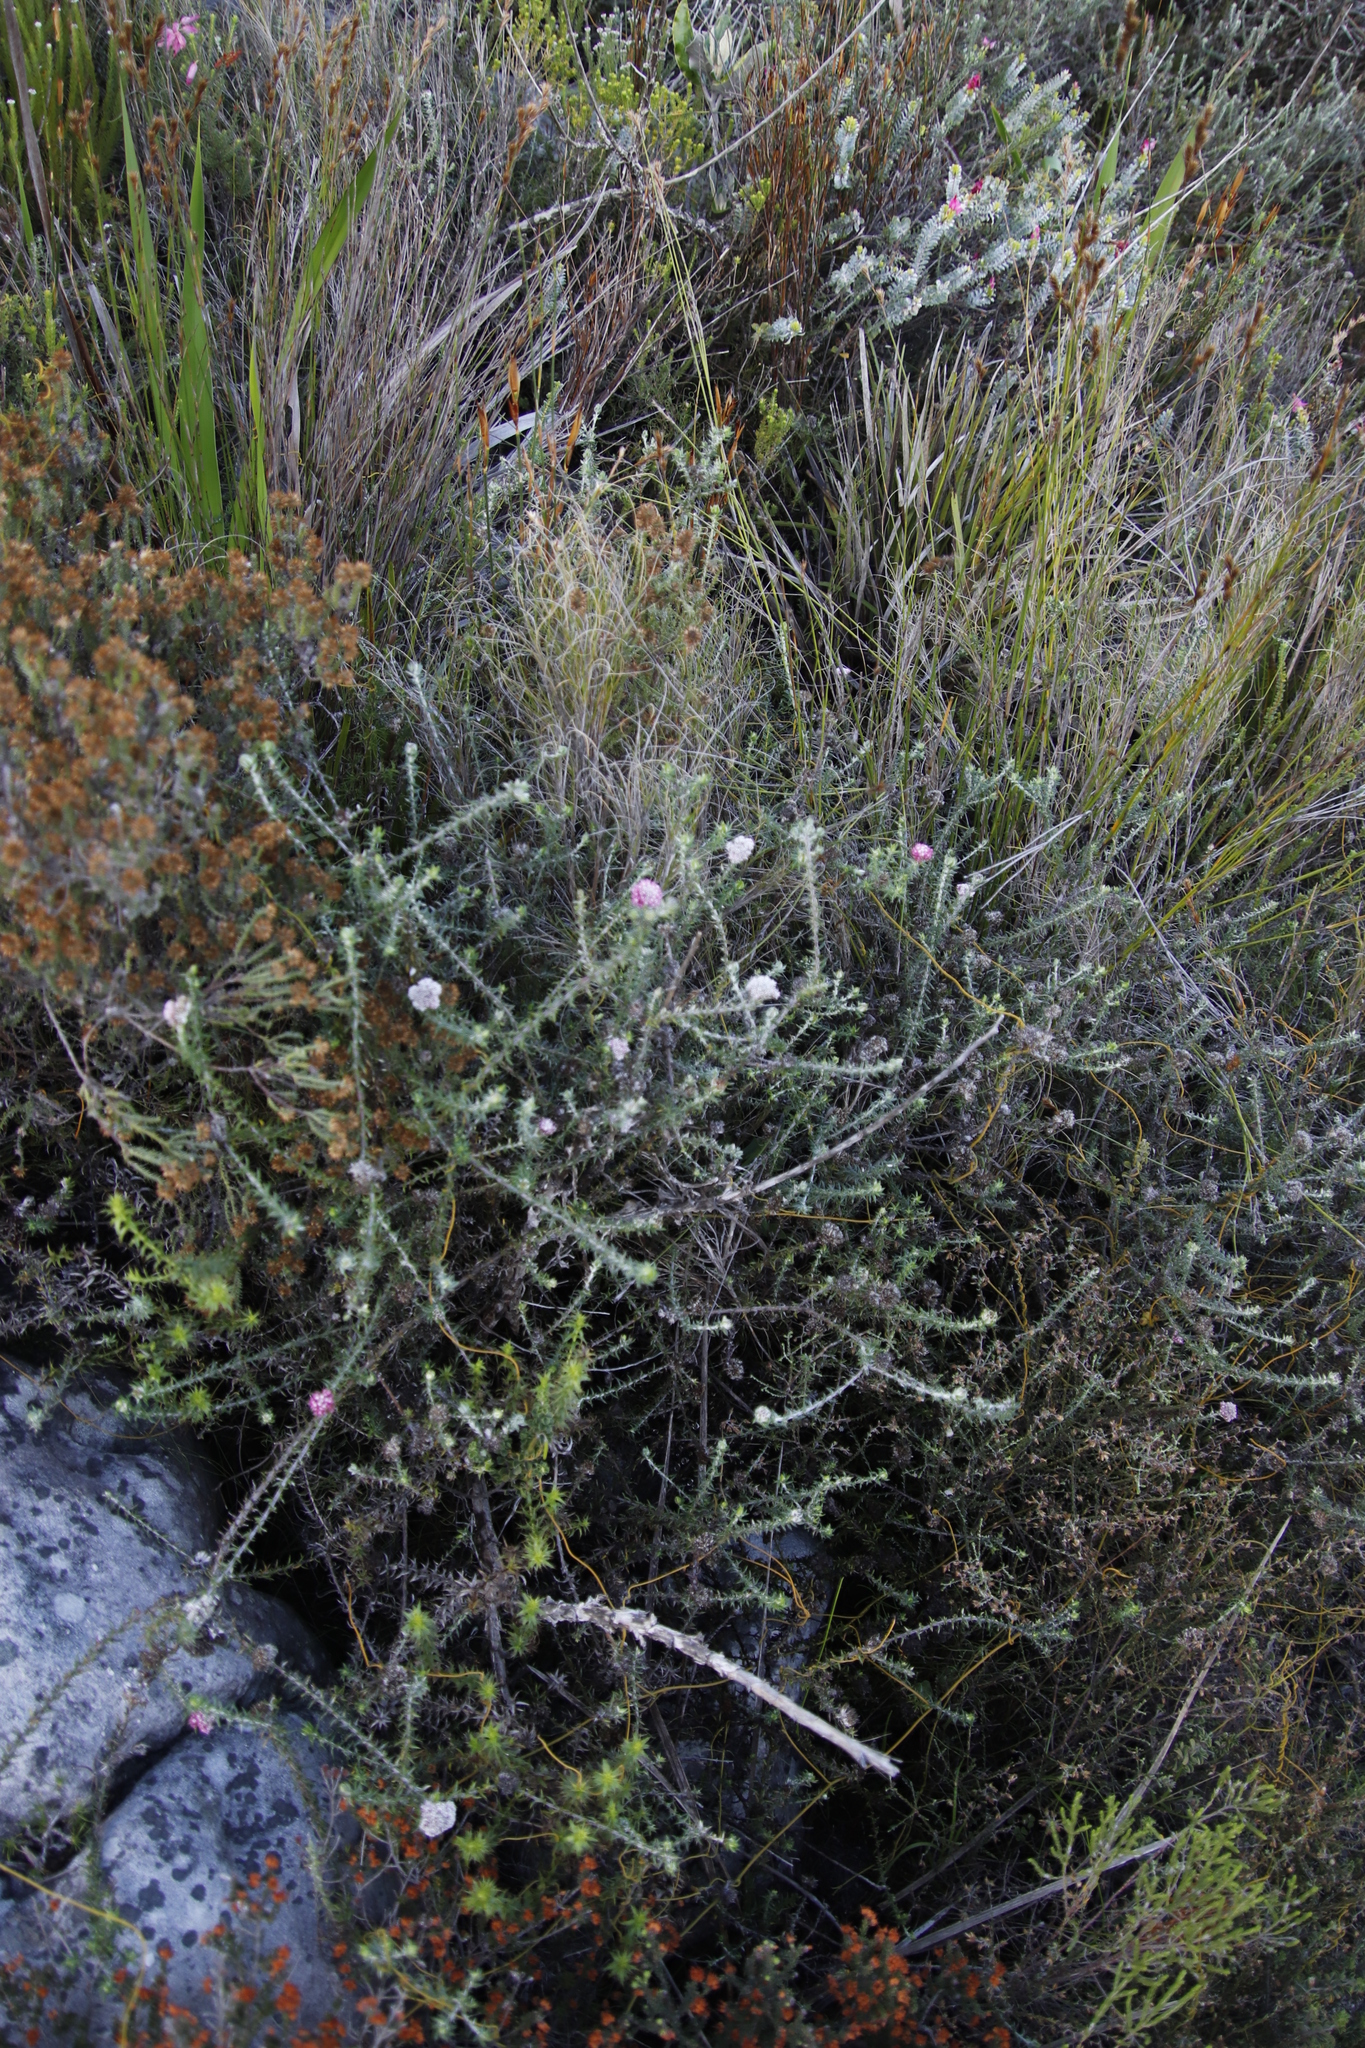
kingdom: Plantae
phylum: Tracheophyta
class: Magnoliopsida
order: Asterales
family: Asteraceae
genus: Metalasia
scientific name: Metalasia divergens
